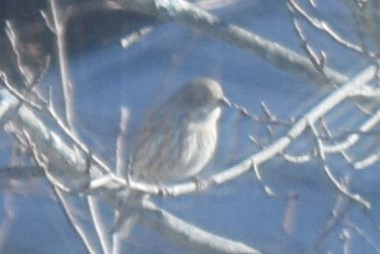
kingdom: Animalia
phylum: Chordata
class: Aves
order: Passeriformes
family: Fringillidae
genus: Haemorhous
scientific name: Haemorhous mexicanus
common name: House finch
